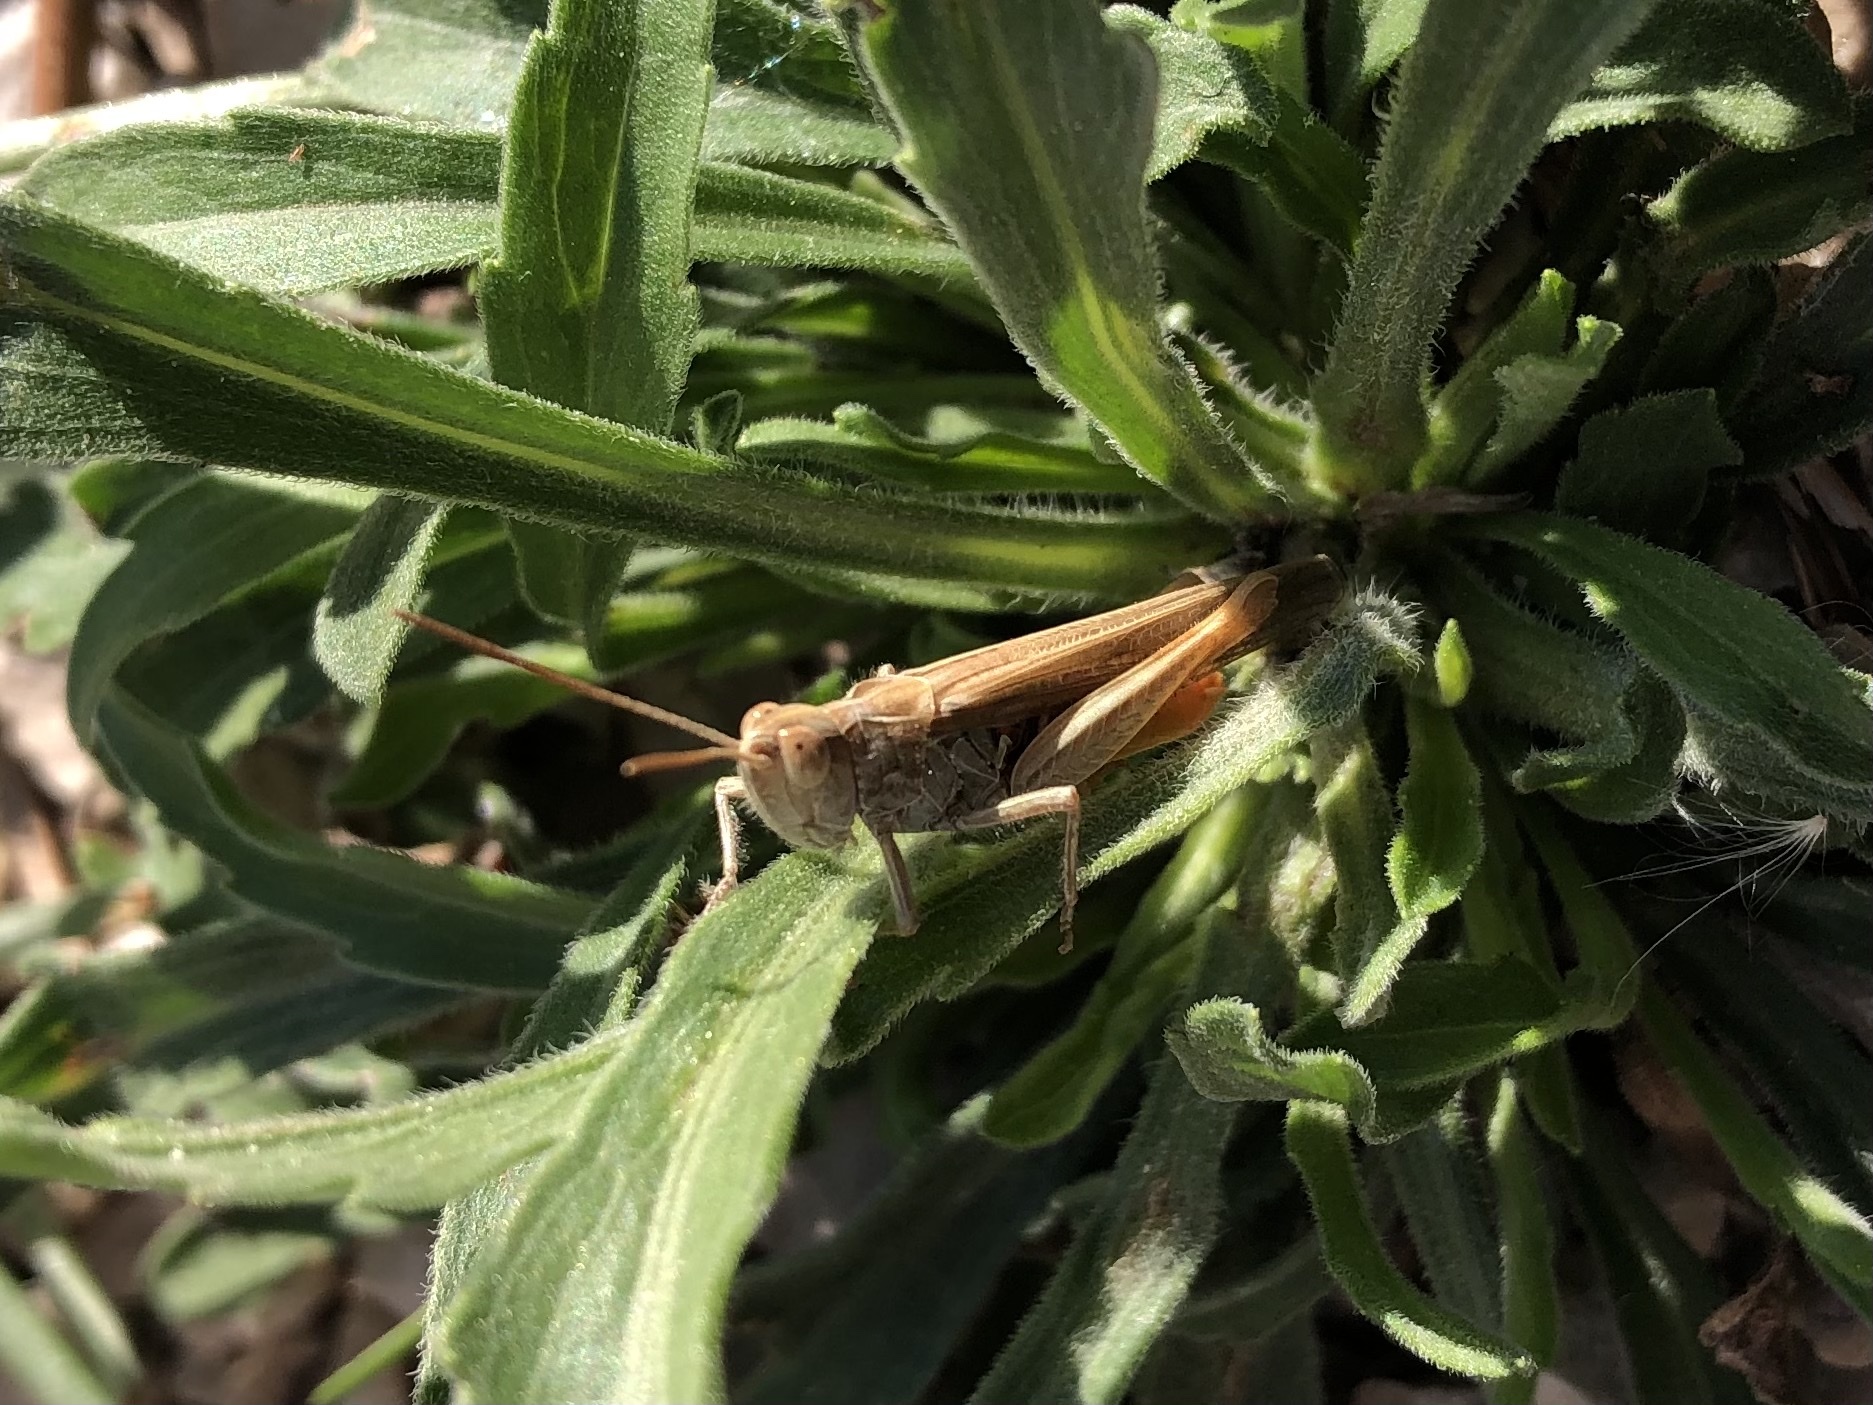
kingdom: Animalia
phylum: Arthropoda
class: Insecta
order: Orthoptera
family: Acrididae
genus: Chorthippus
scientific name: Chorthippus maritimus
